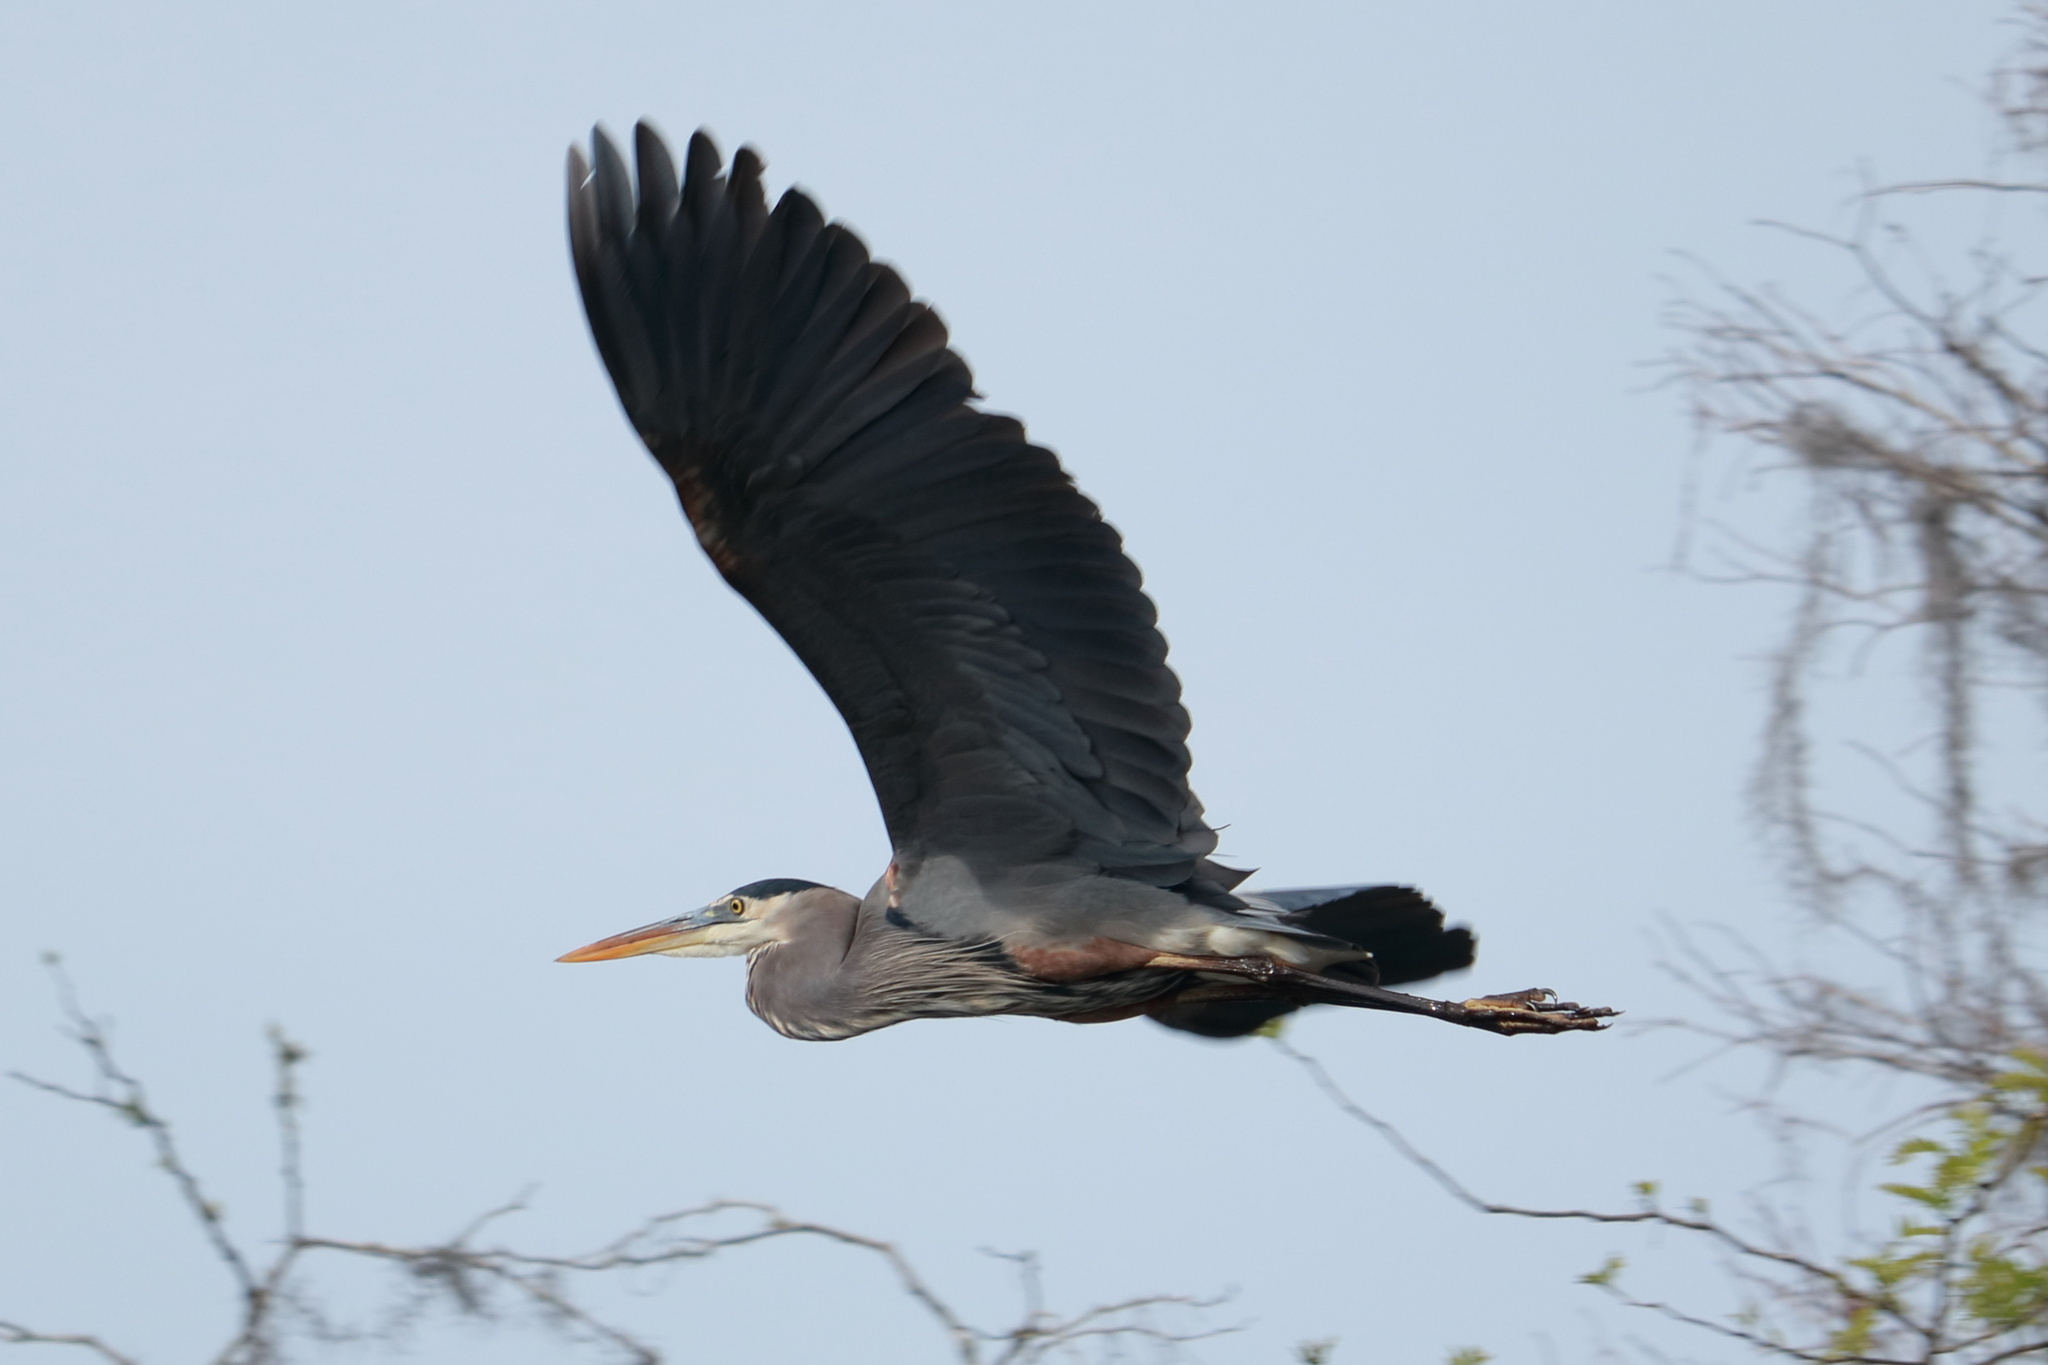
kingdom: Animalia
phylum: Chordata
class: Aves
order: Pelecaniformes
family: Ardeidae
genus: Ardea
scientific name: Ardea herodias
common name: Great blue heron
